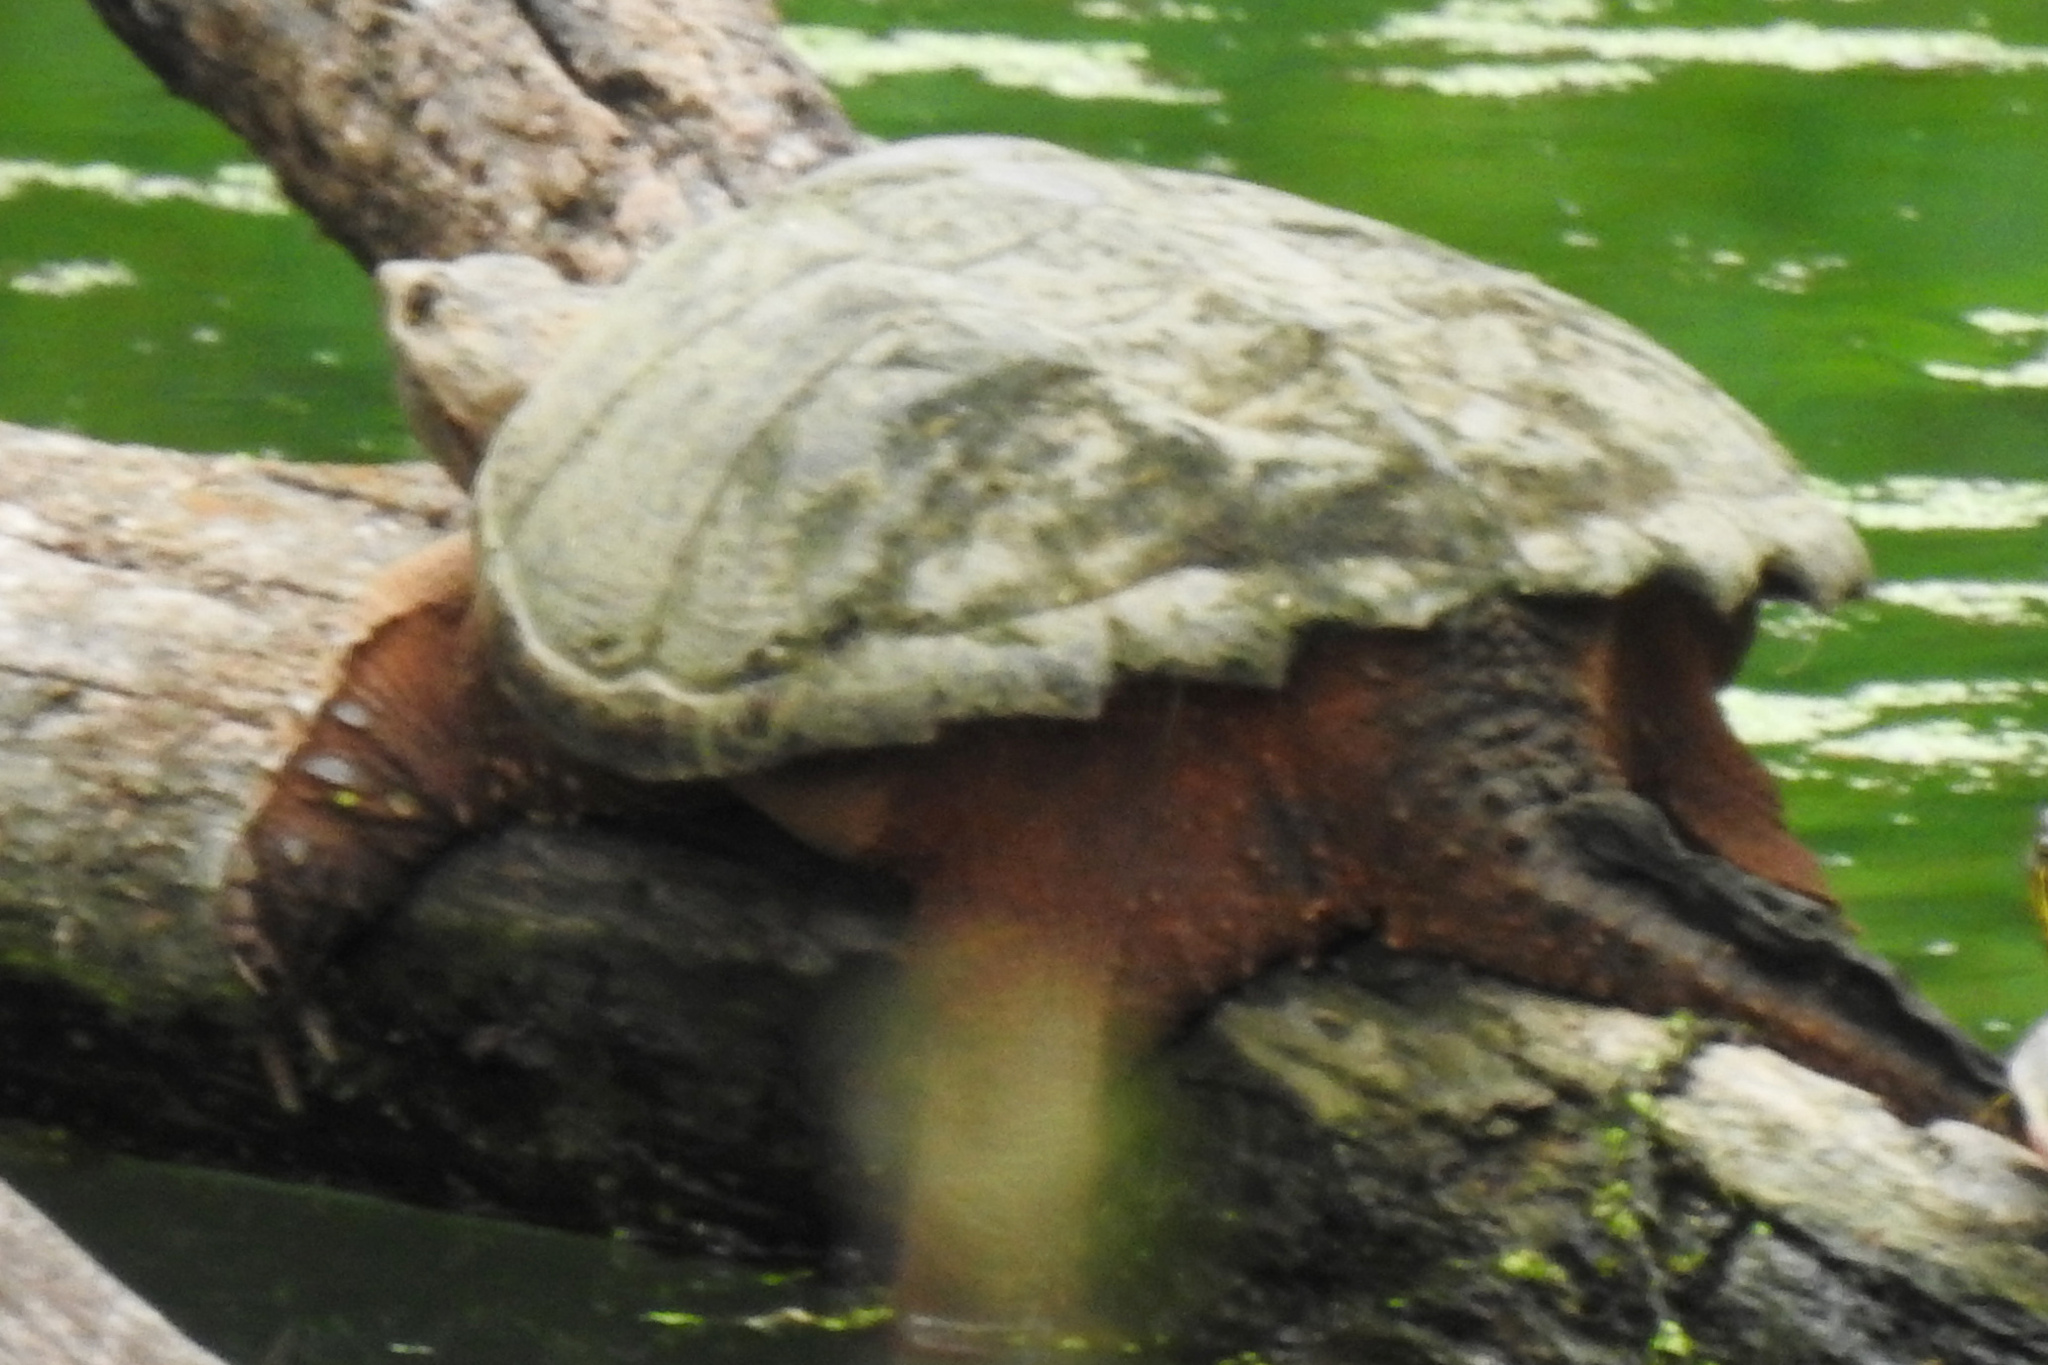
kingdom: Animalia
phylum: Chordata
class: Testudines
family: Chelydridae
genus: Chelydra
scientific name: Chelydra serpentina
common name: Common snapping turtle
